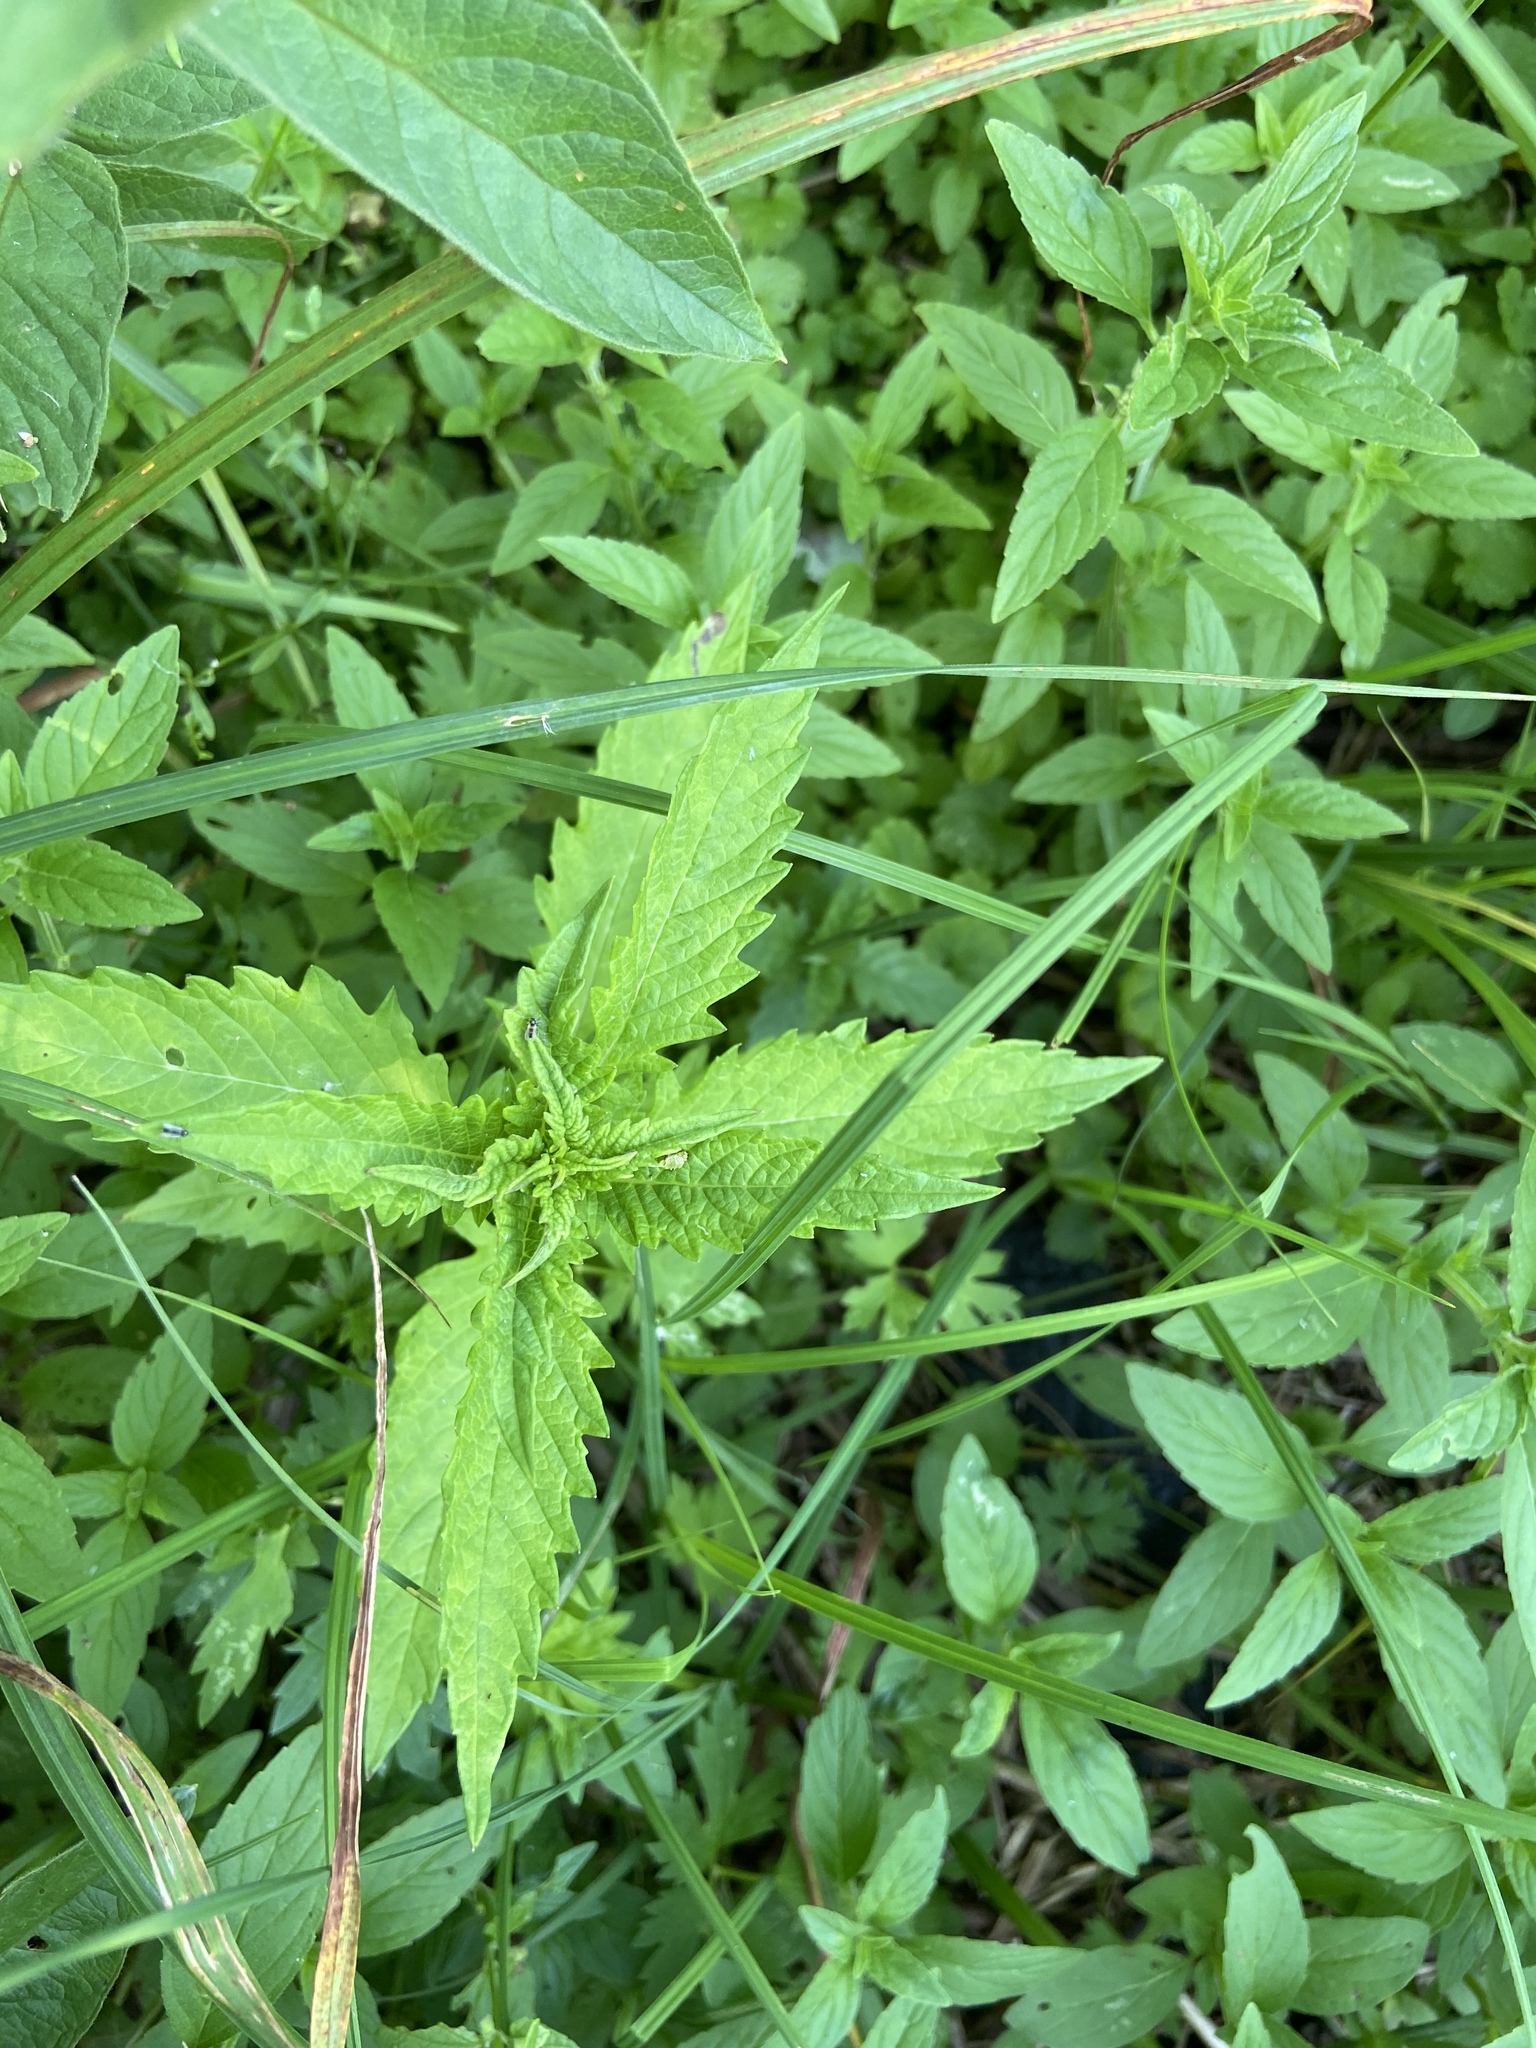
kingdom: Plantae
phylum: Tracheophyta
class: Magnoliopsida
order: Lamiales
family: Lamiaceae
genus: Lycopus
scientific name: Lycopus europaeus
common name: European bugleweed
